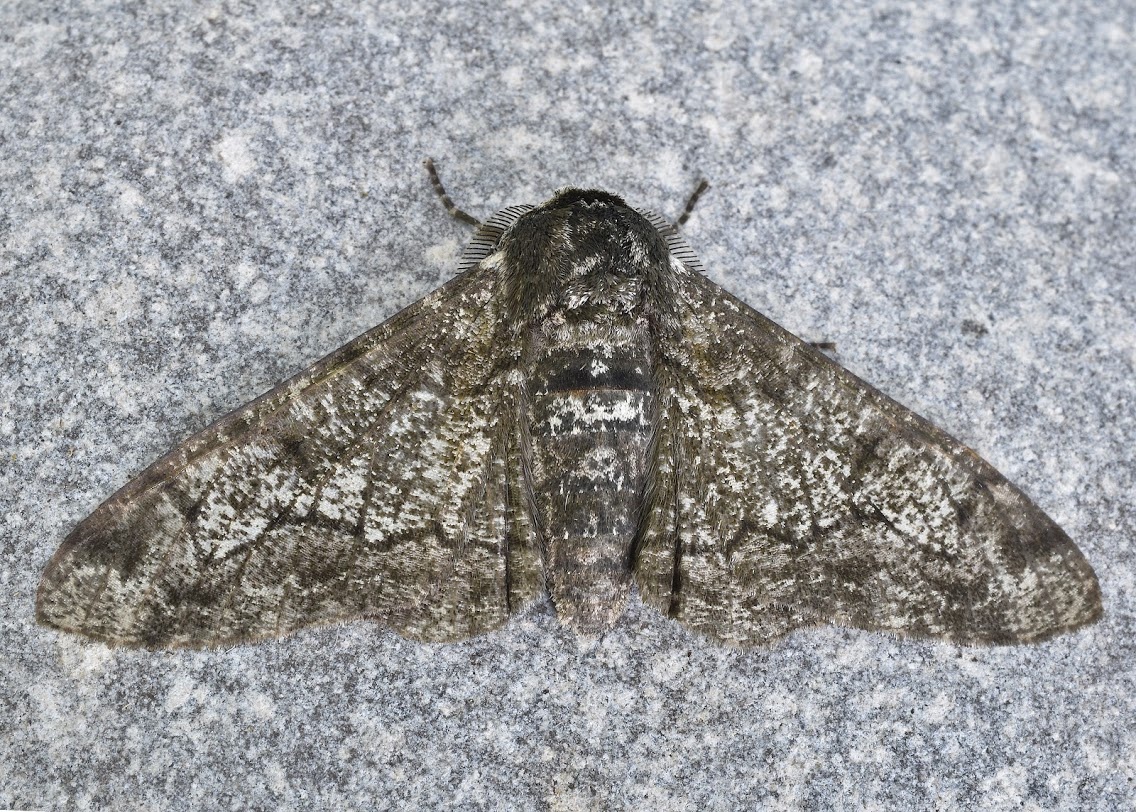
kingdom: Animalia
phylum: Arthropoda
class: Insecta
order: Lepidoptera
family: Geometridae
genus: Biston
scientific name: Biston betularia
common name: Peppered moth
